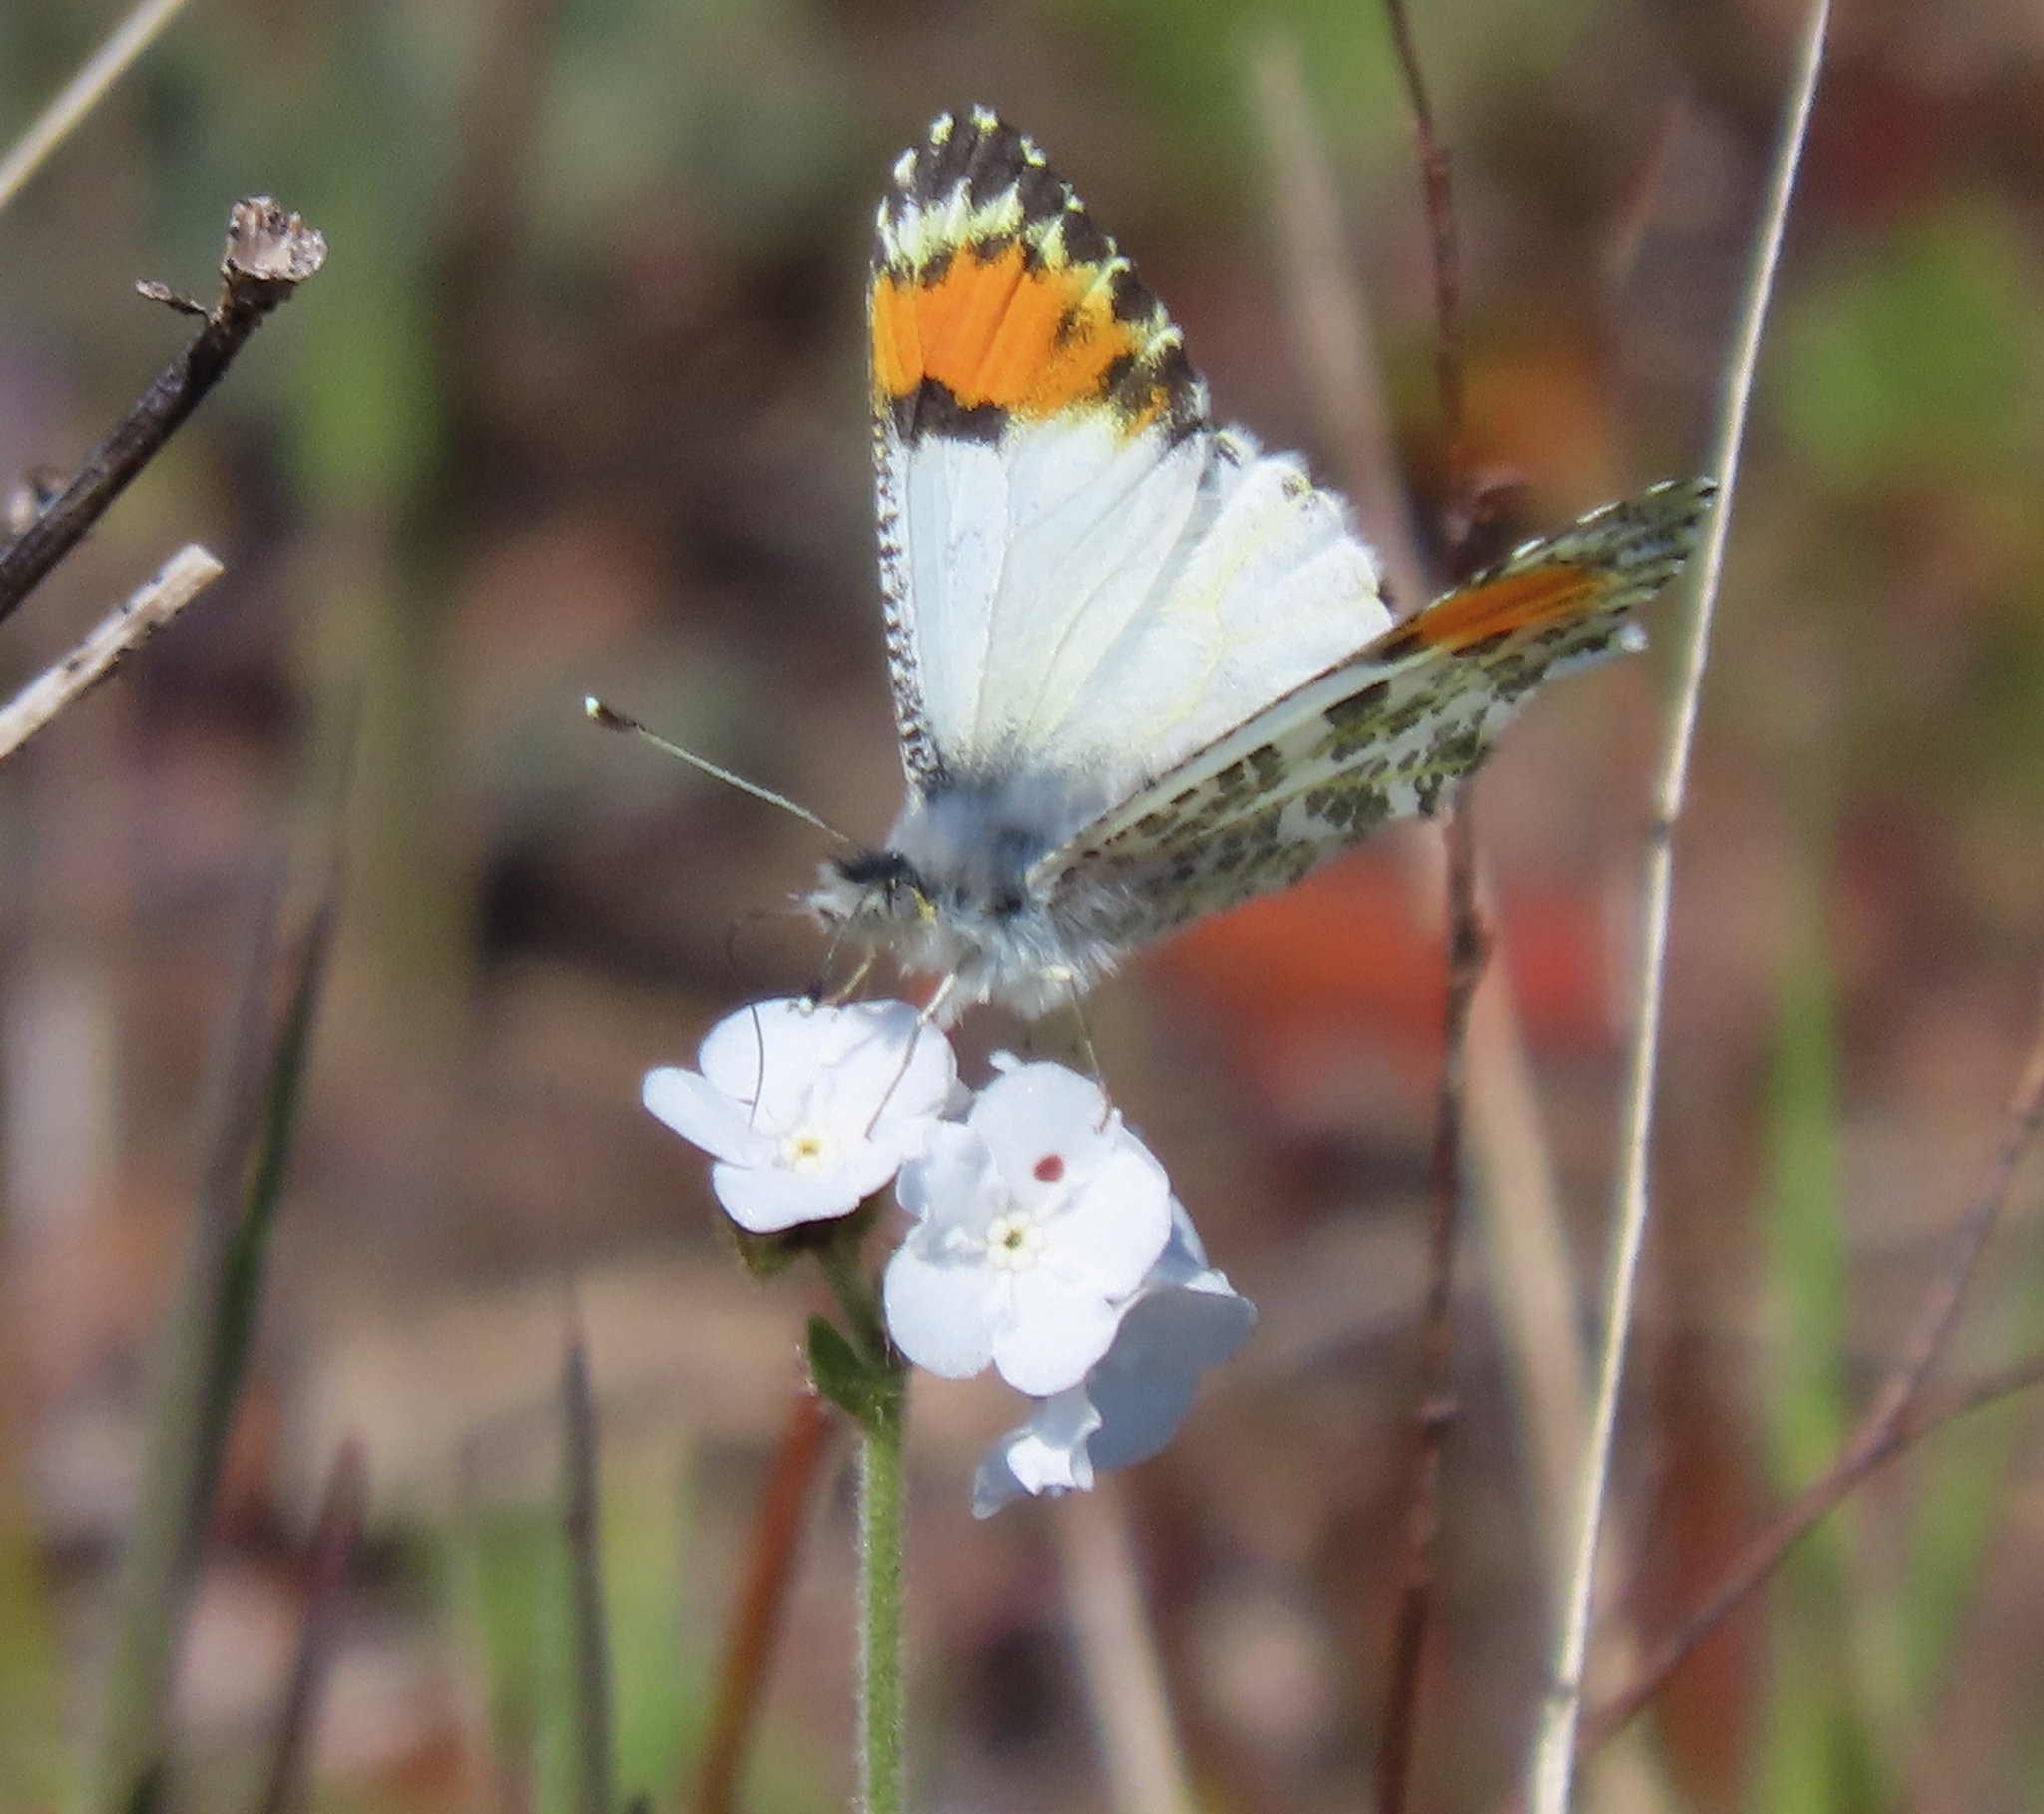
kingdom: Animalia
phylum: Arthropoda
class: Insecta
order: Lepidoptera
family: Pieridae
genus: Anthocharis
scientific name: Anthocharis sara
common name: Sara's orangetip
